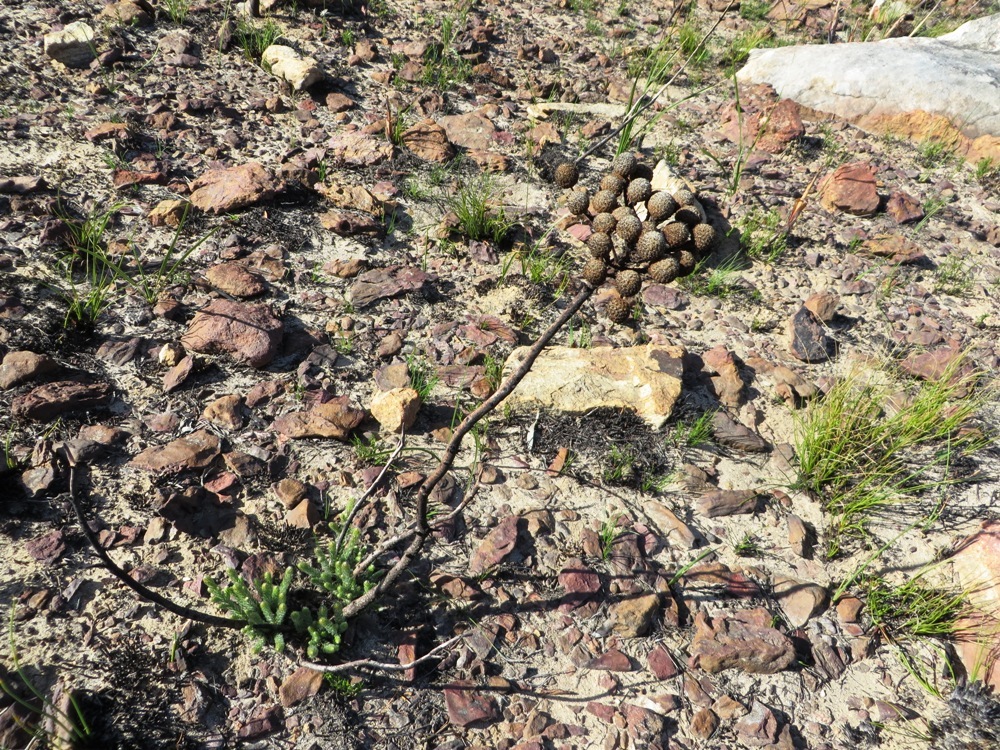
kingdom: Plantae
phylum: Tracheophyta
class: Magnoliopsida
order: Bruniales
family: Bruniaceae
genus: Brunia
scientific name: Brunia noduliflora
